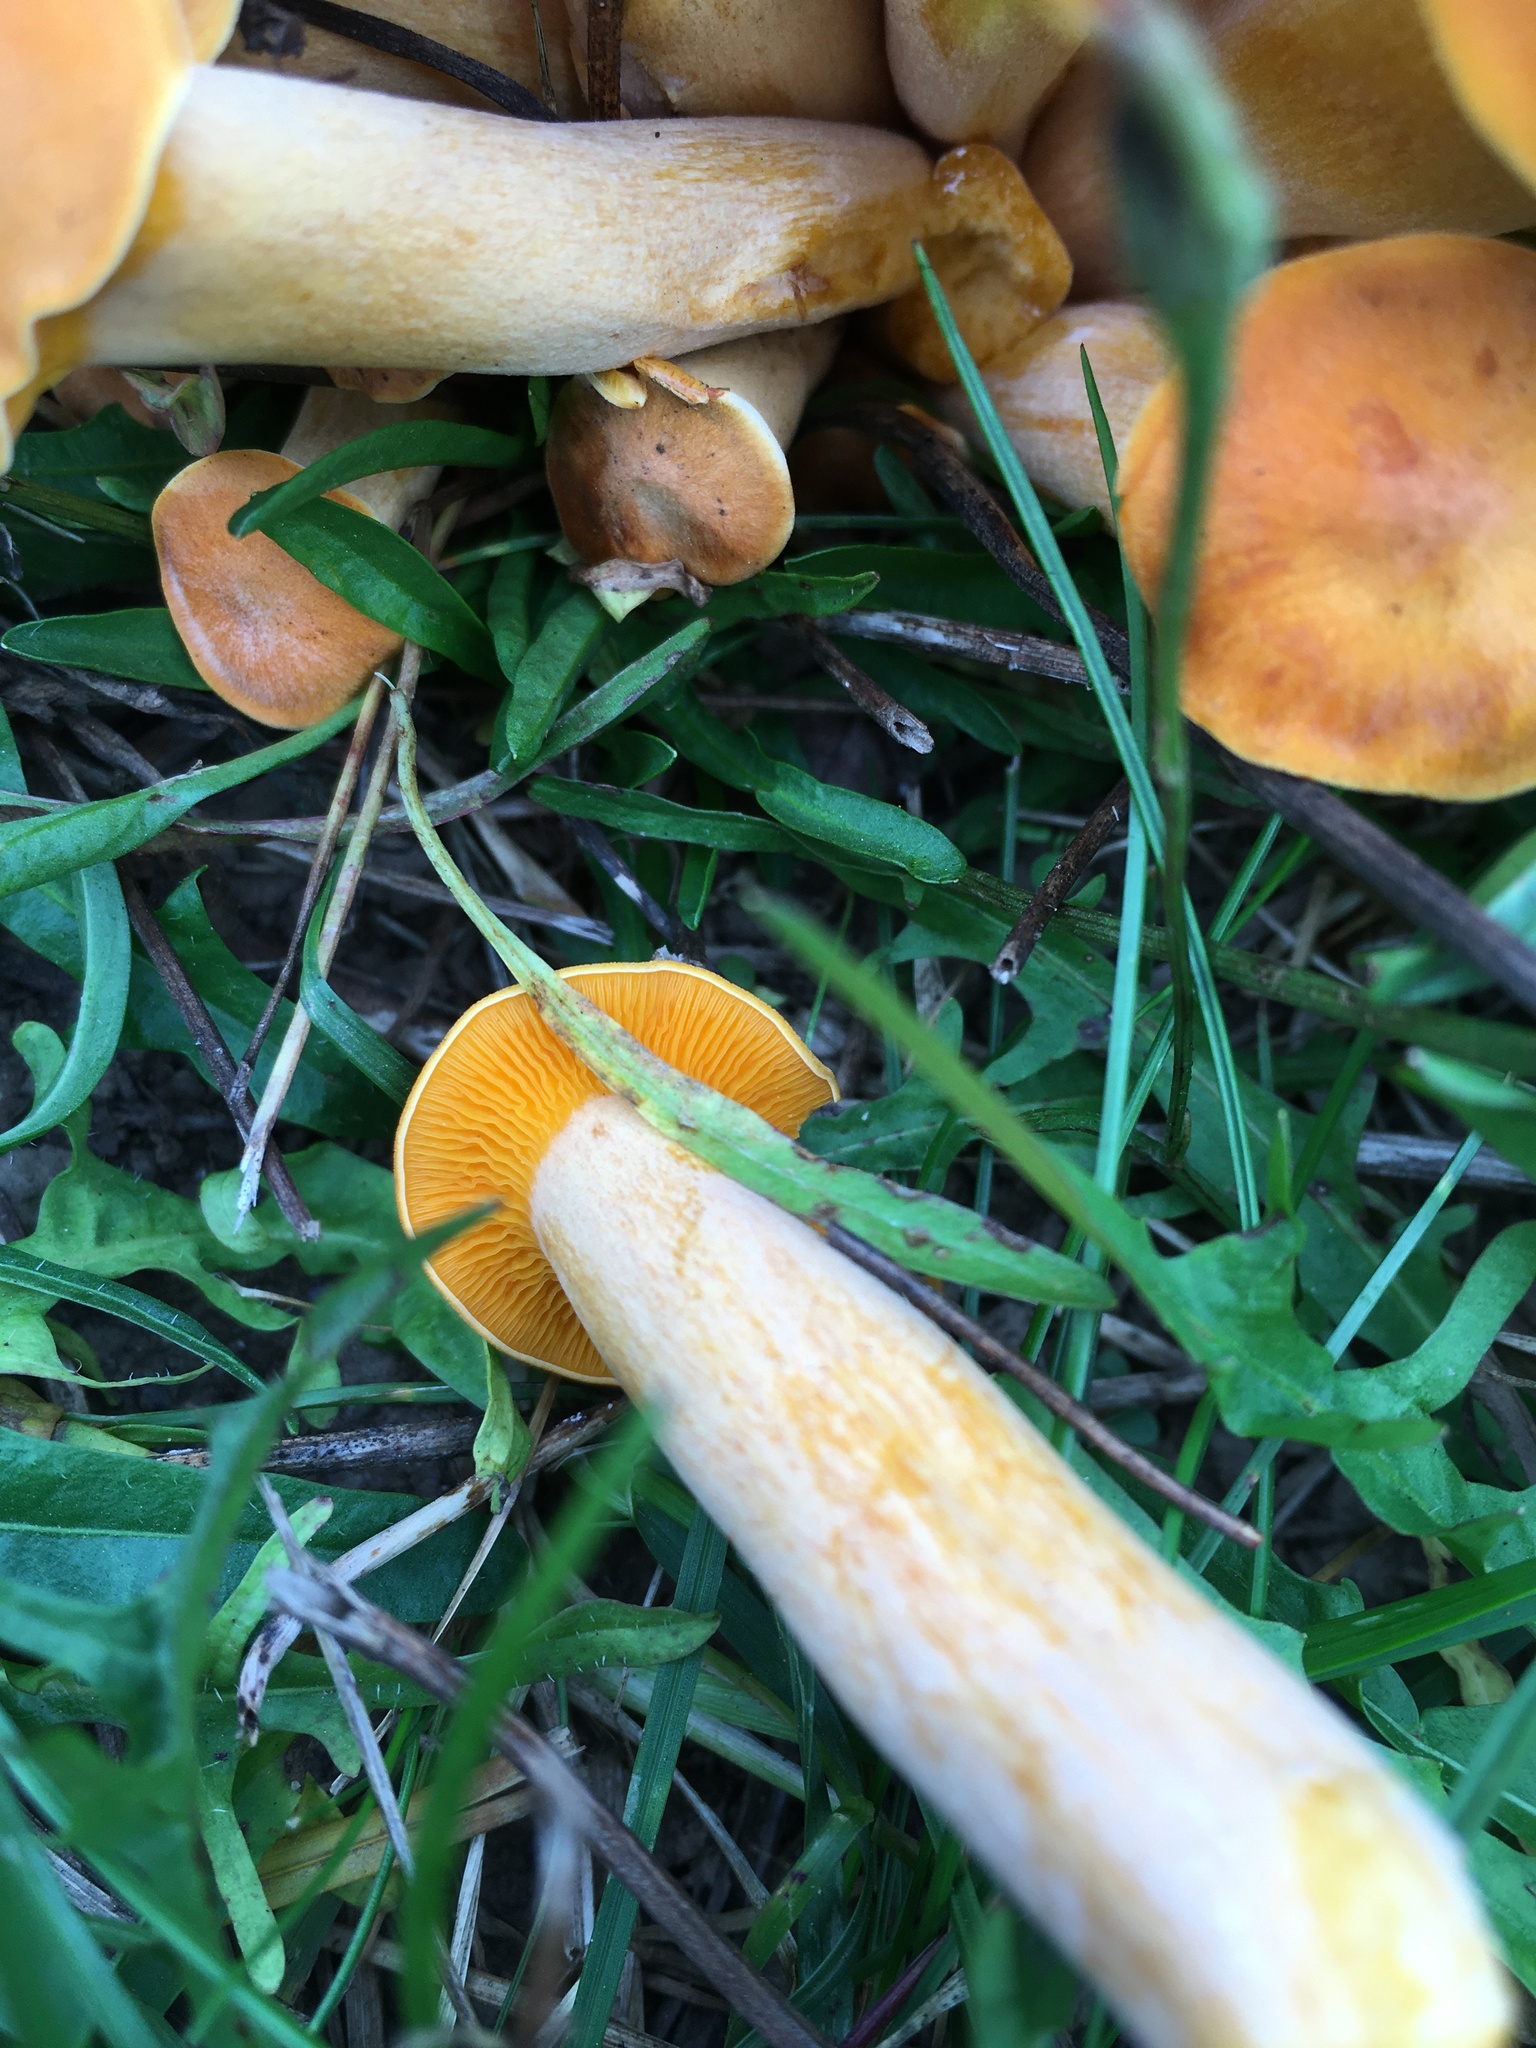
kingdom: Fungi
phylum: Basidiomycota
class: Agaricomycetes
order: Agaricales
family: Omphalotaceae
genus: Omphalotus
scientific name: Omphalotus illudens
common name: Jack o lantern
